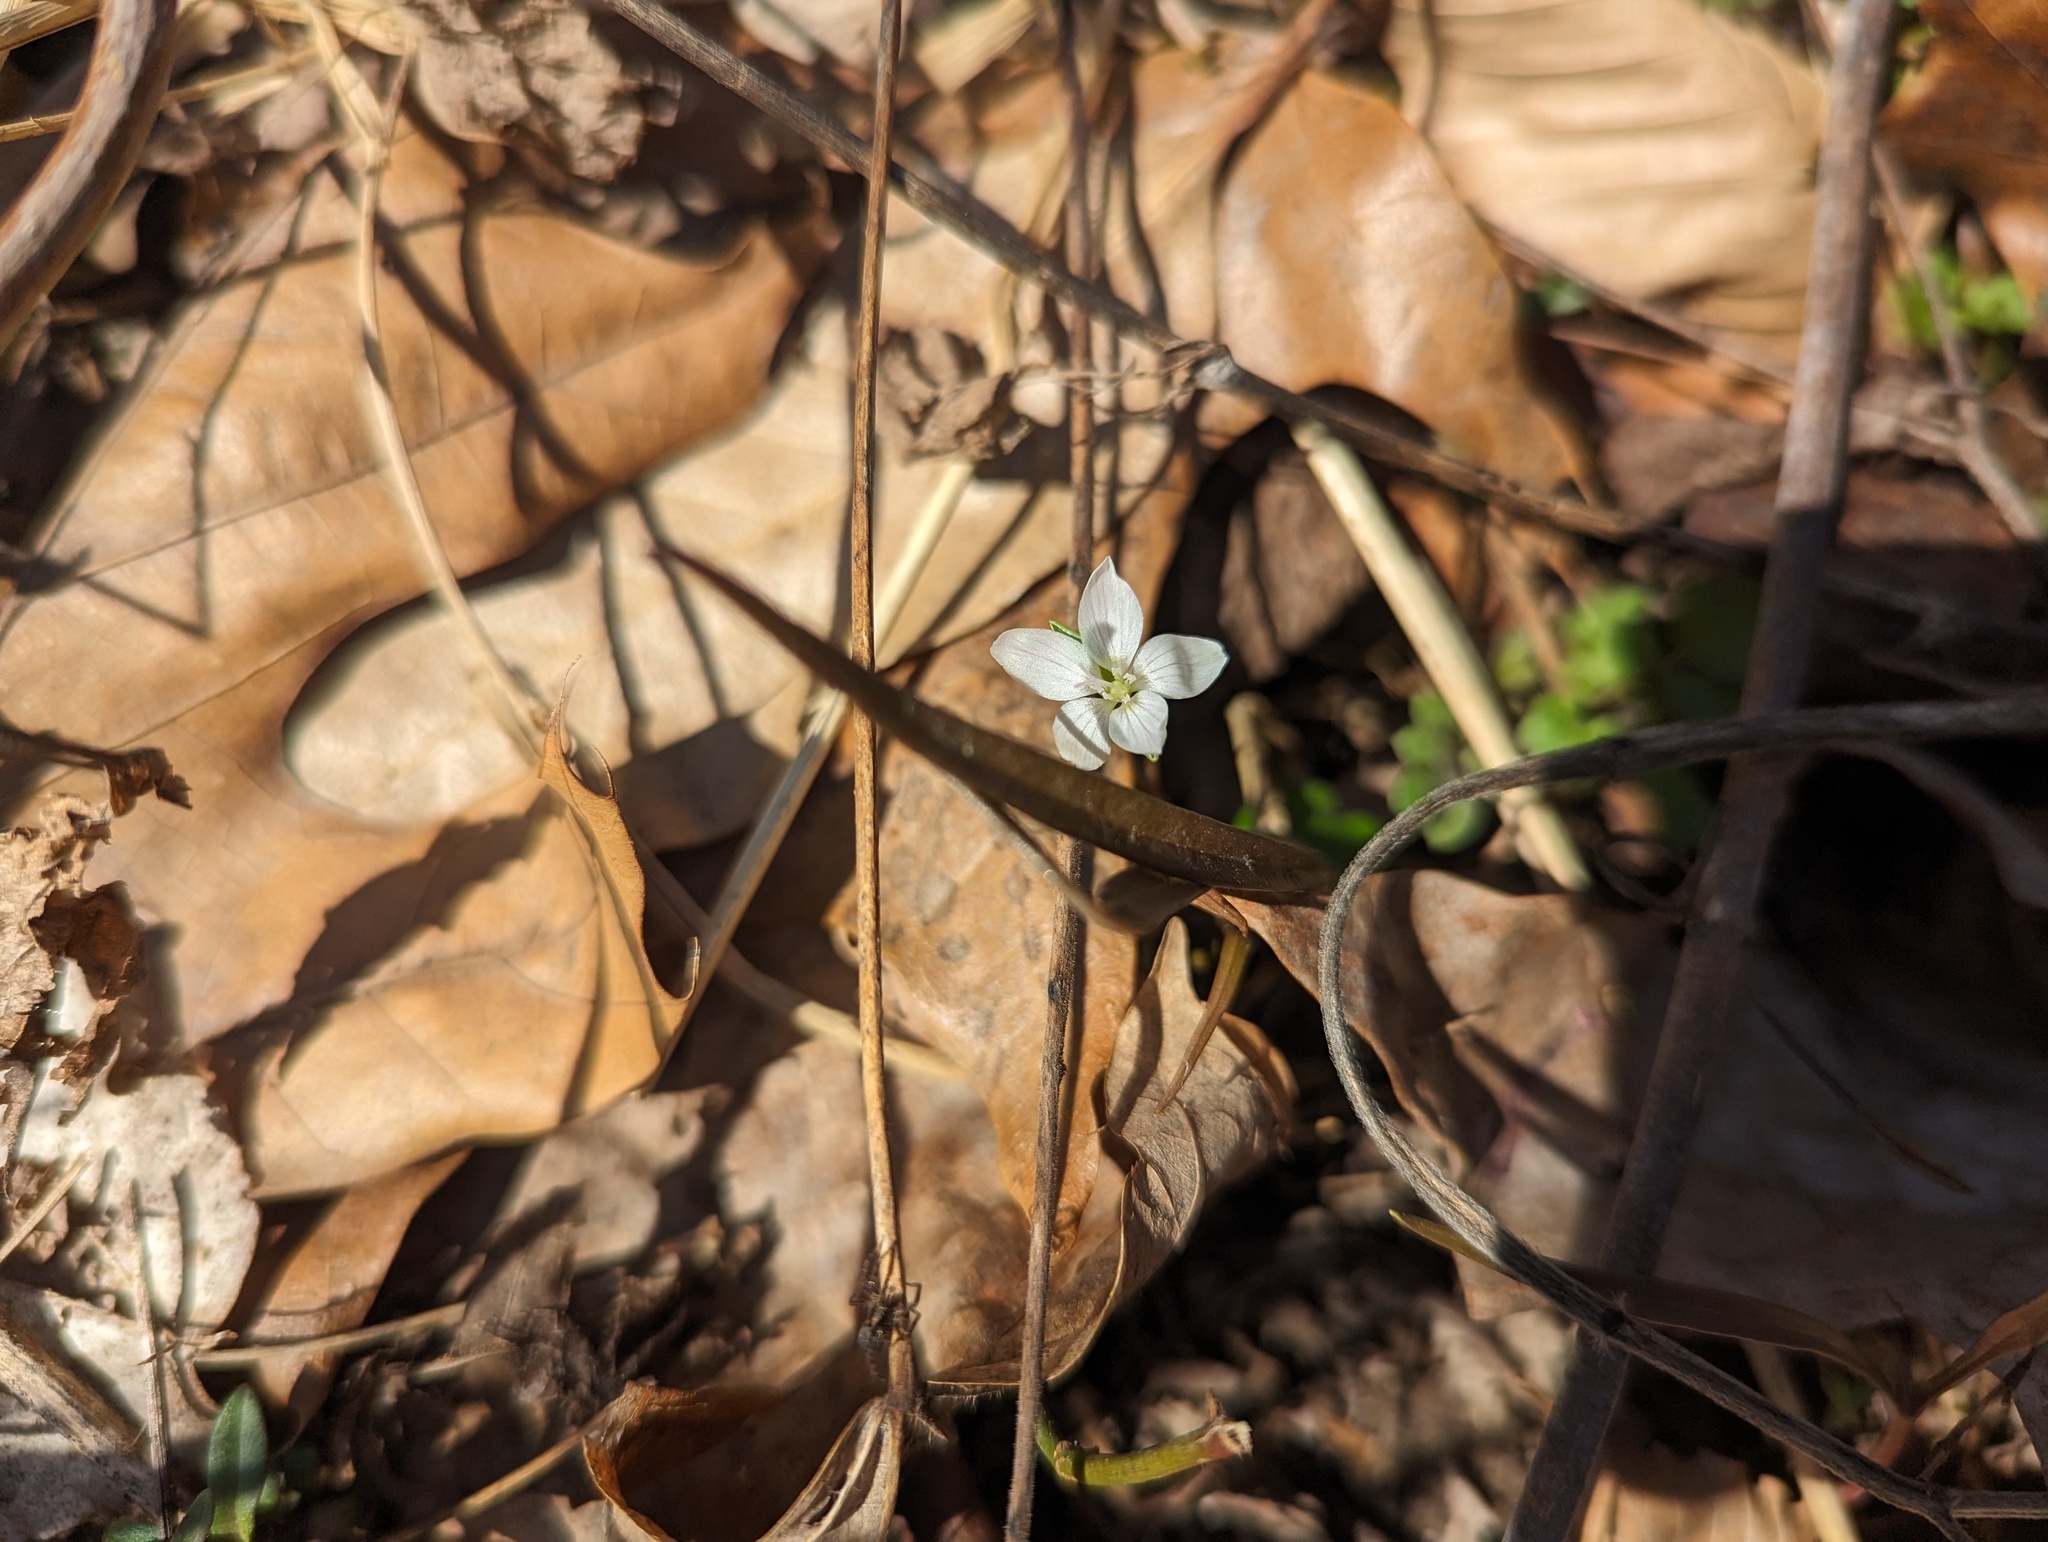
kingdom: Plantae
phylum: Tracheophyta
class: Magnoliopsida
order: Caryophyllales
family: Montiaceae
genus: Claytonia
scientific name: Claytonia virginica
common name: Virginia springbeauty
